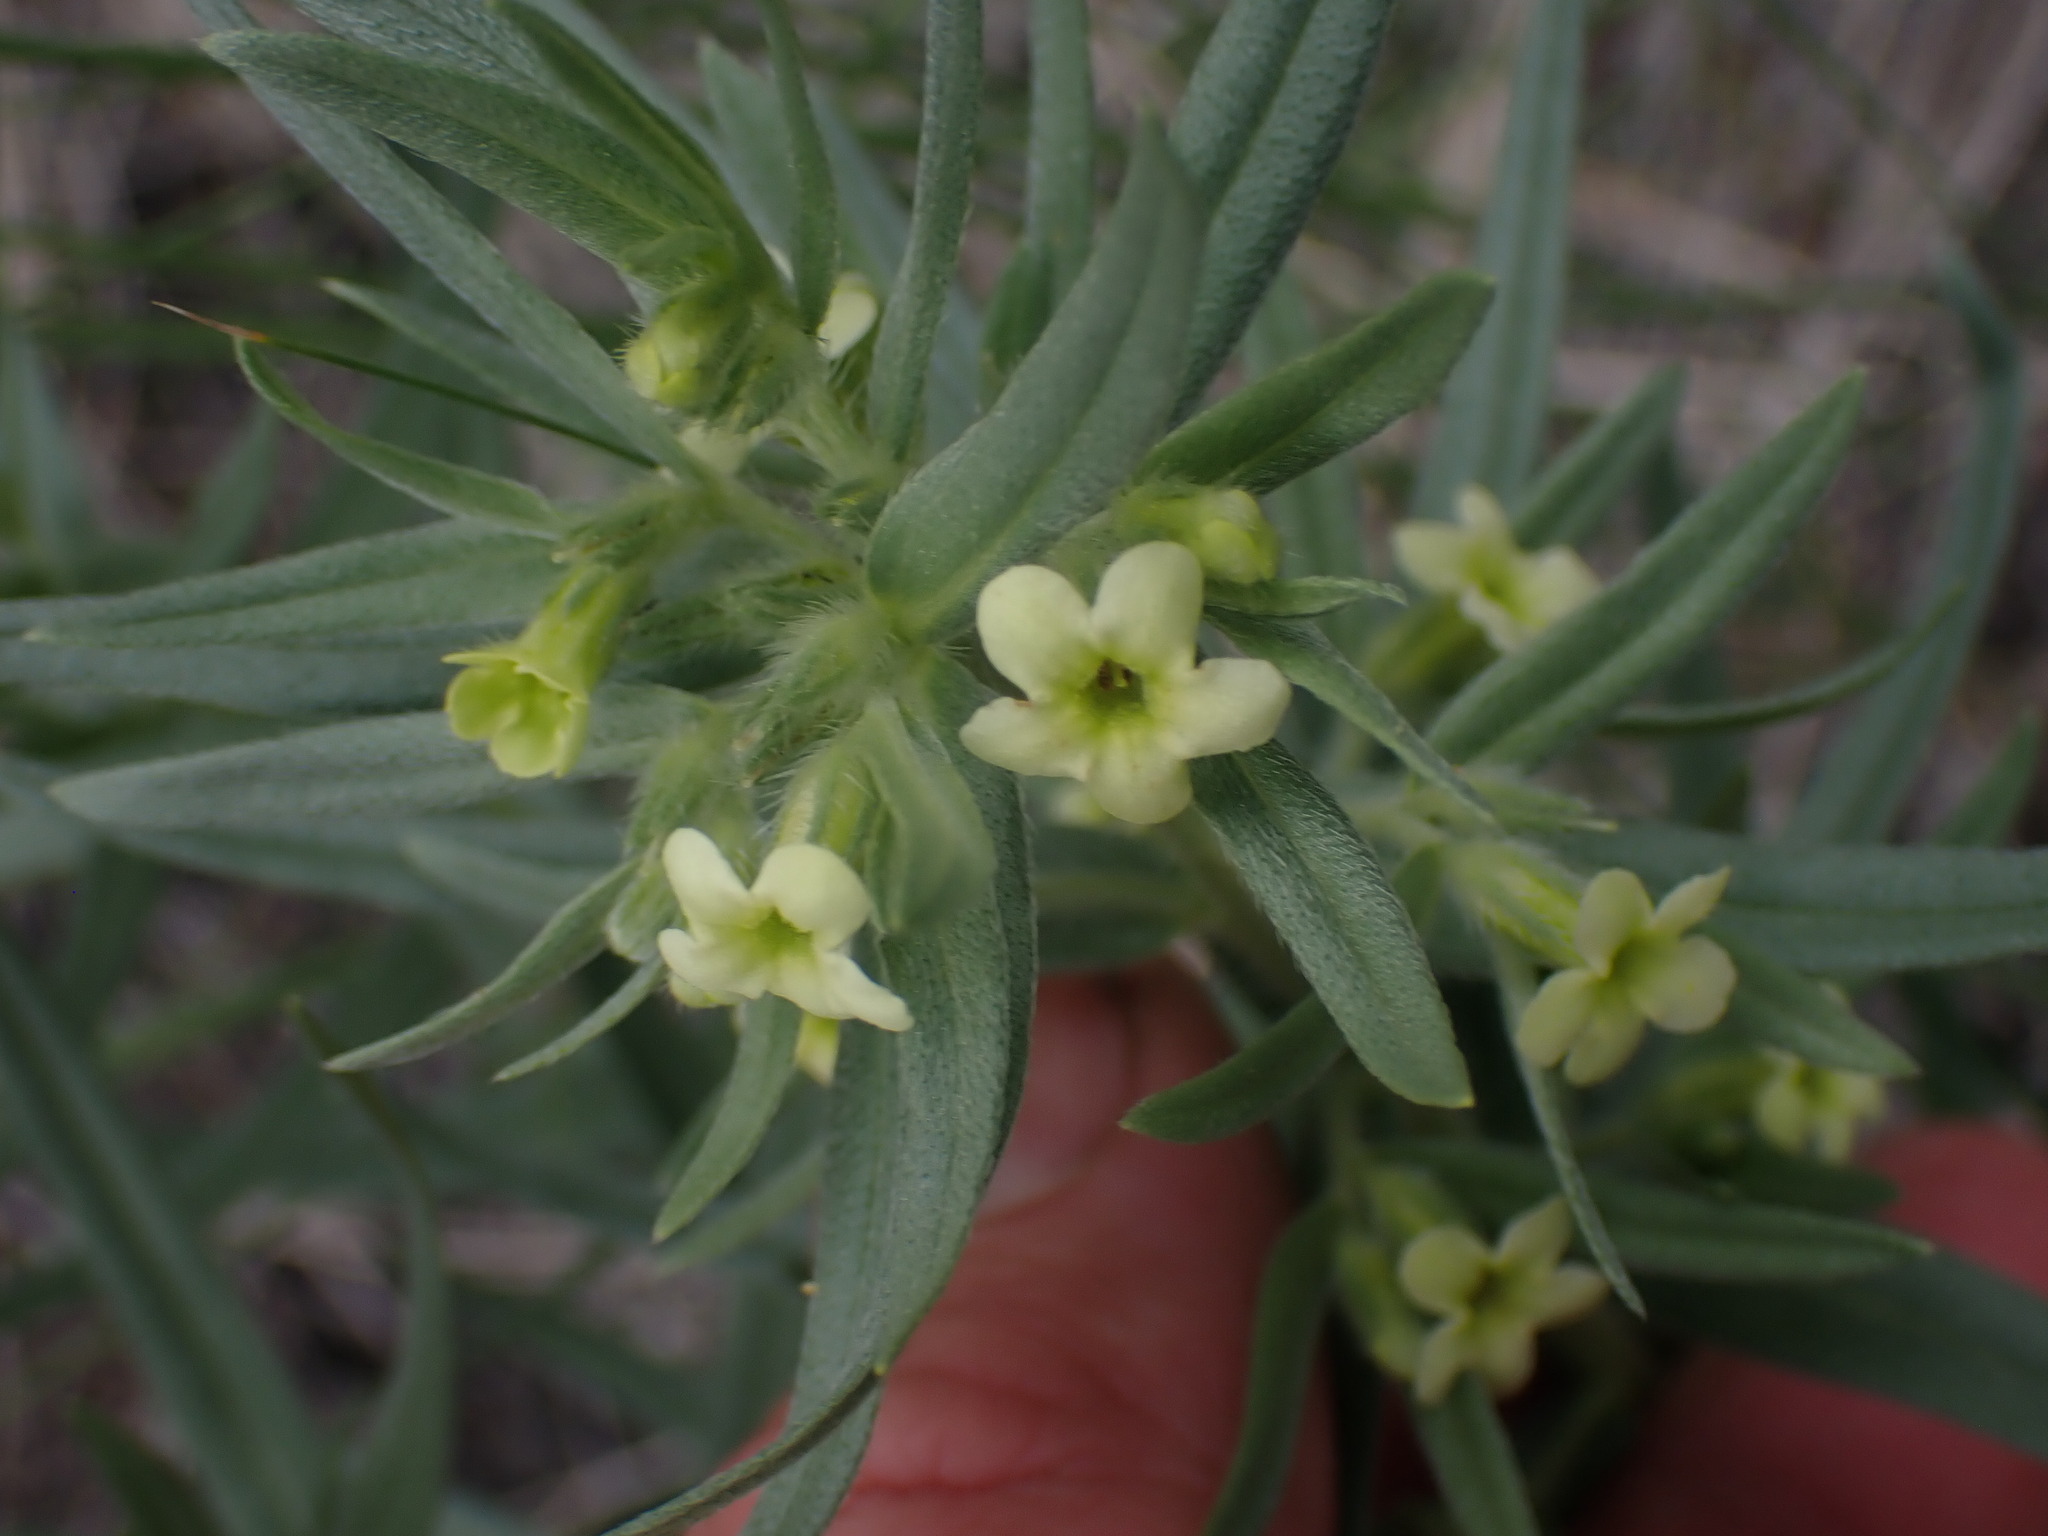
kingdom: Plantae
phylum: Tracheophyta
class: Magnoliopsida
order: Boraginales
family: Boraginaceae
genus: Lithospermum
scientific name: Lithospermum ruderale
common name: Western gromwell
